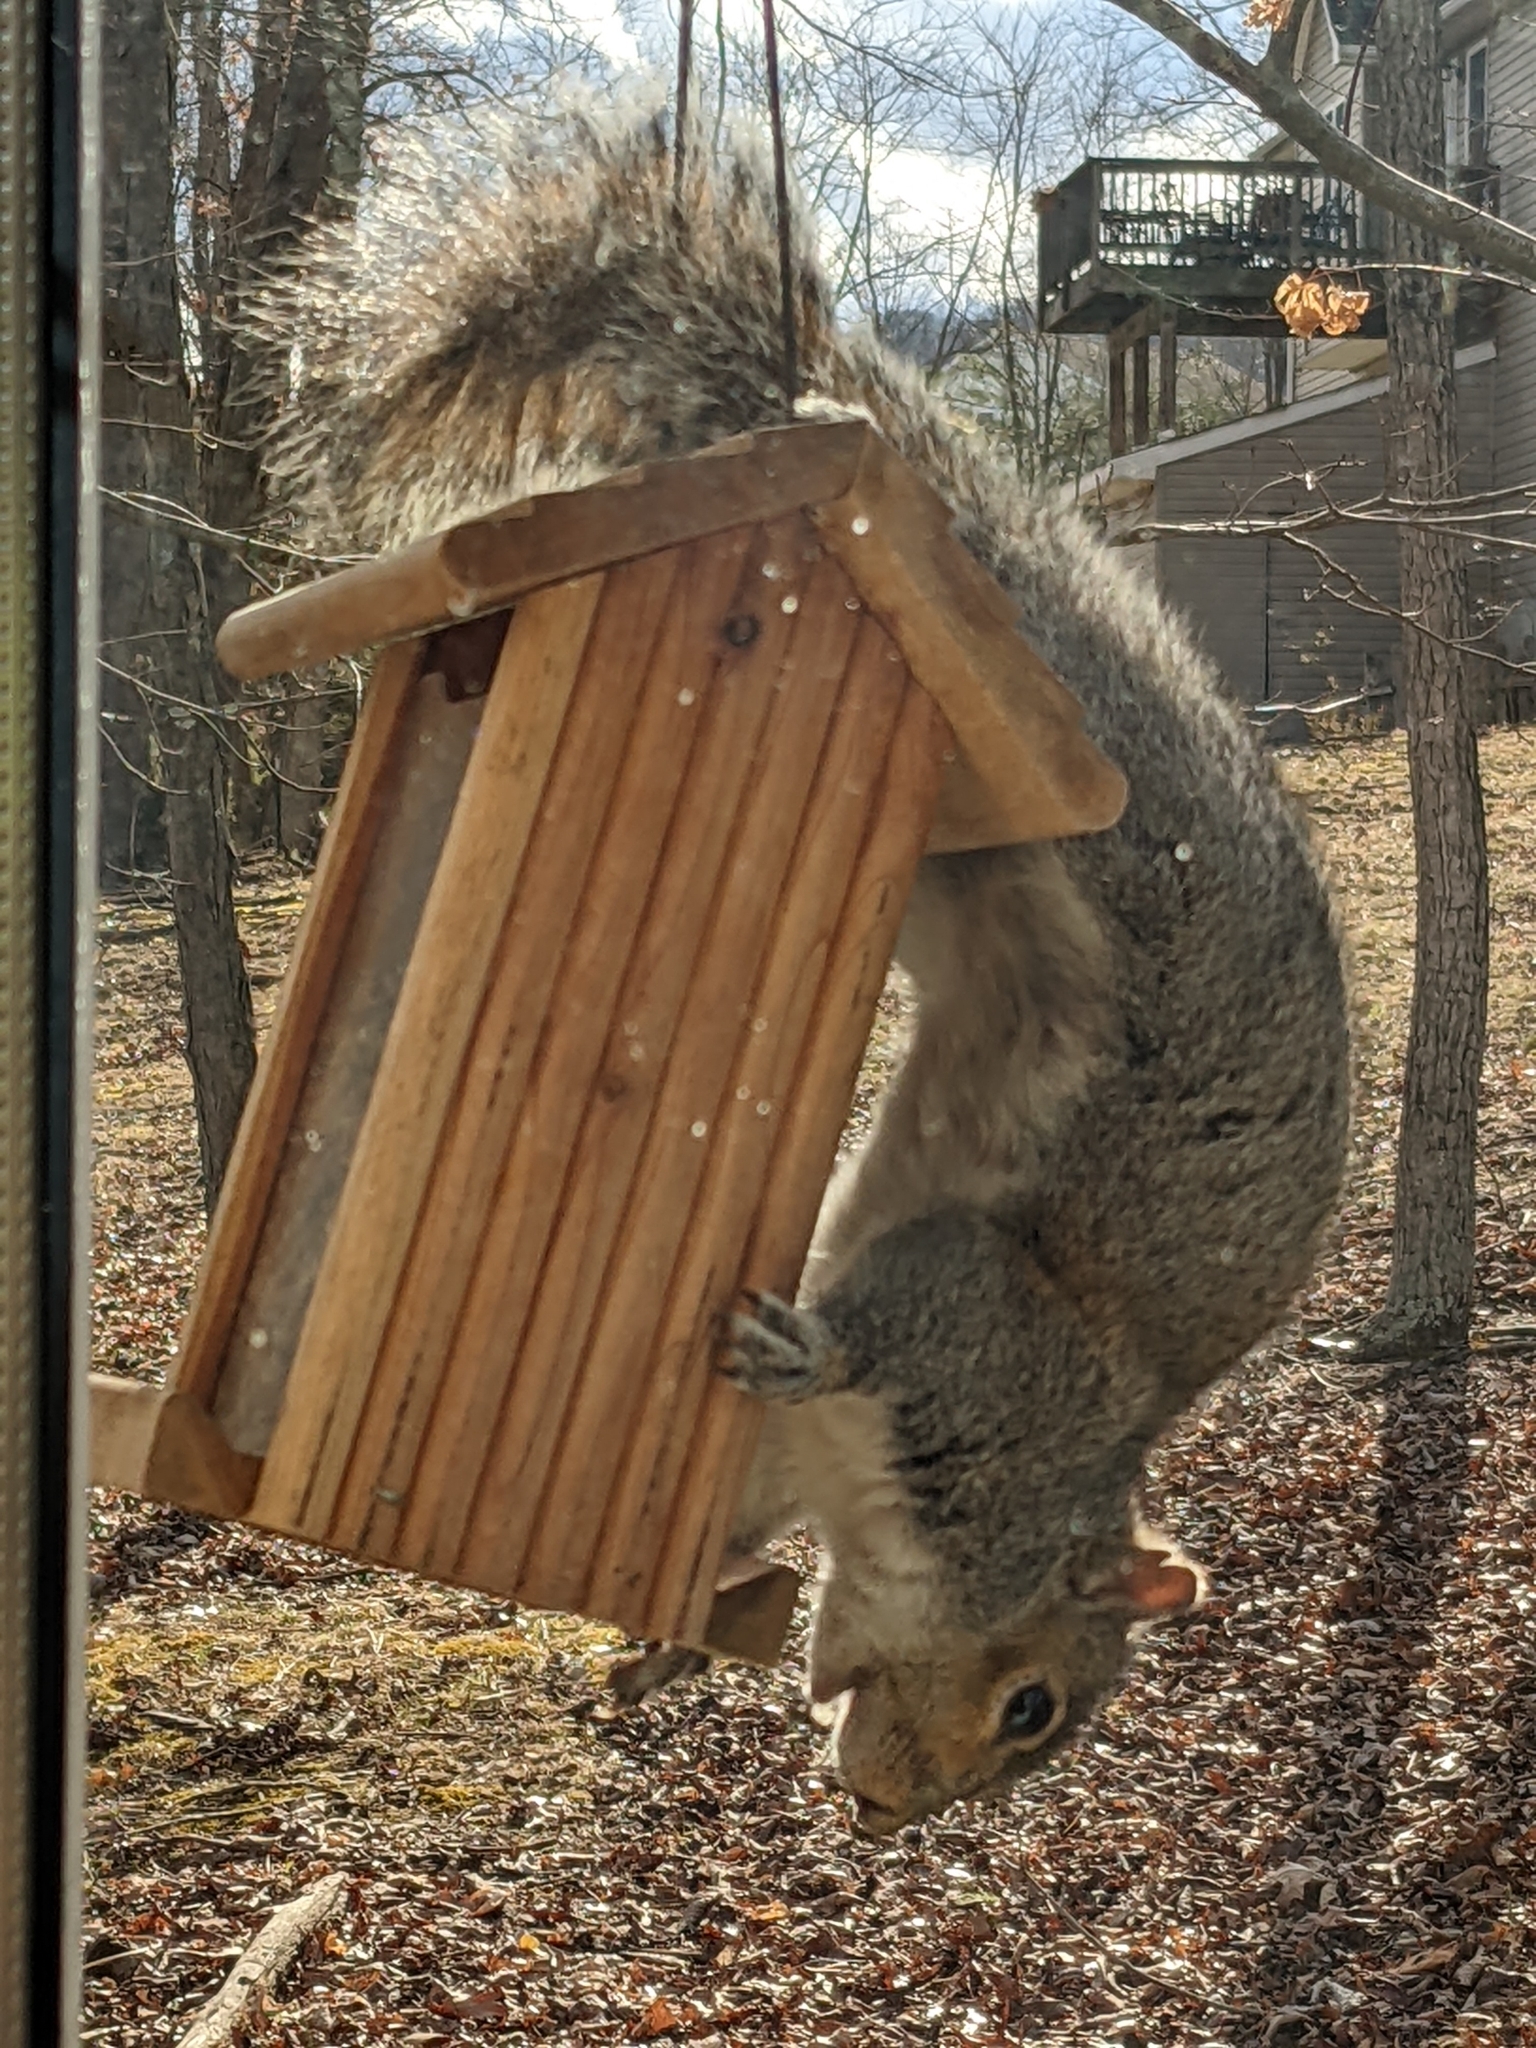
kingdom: Animalia
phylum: Chordata
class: Mammalia
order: Rodentia
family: Sciuridae
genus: Sciurus
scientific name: Sciurus carolinensis
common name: Eastern gray squirrel
